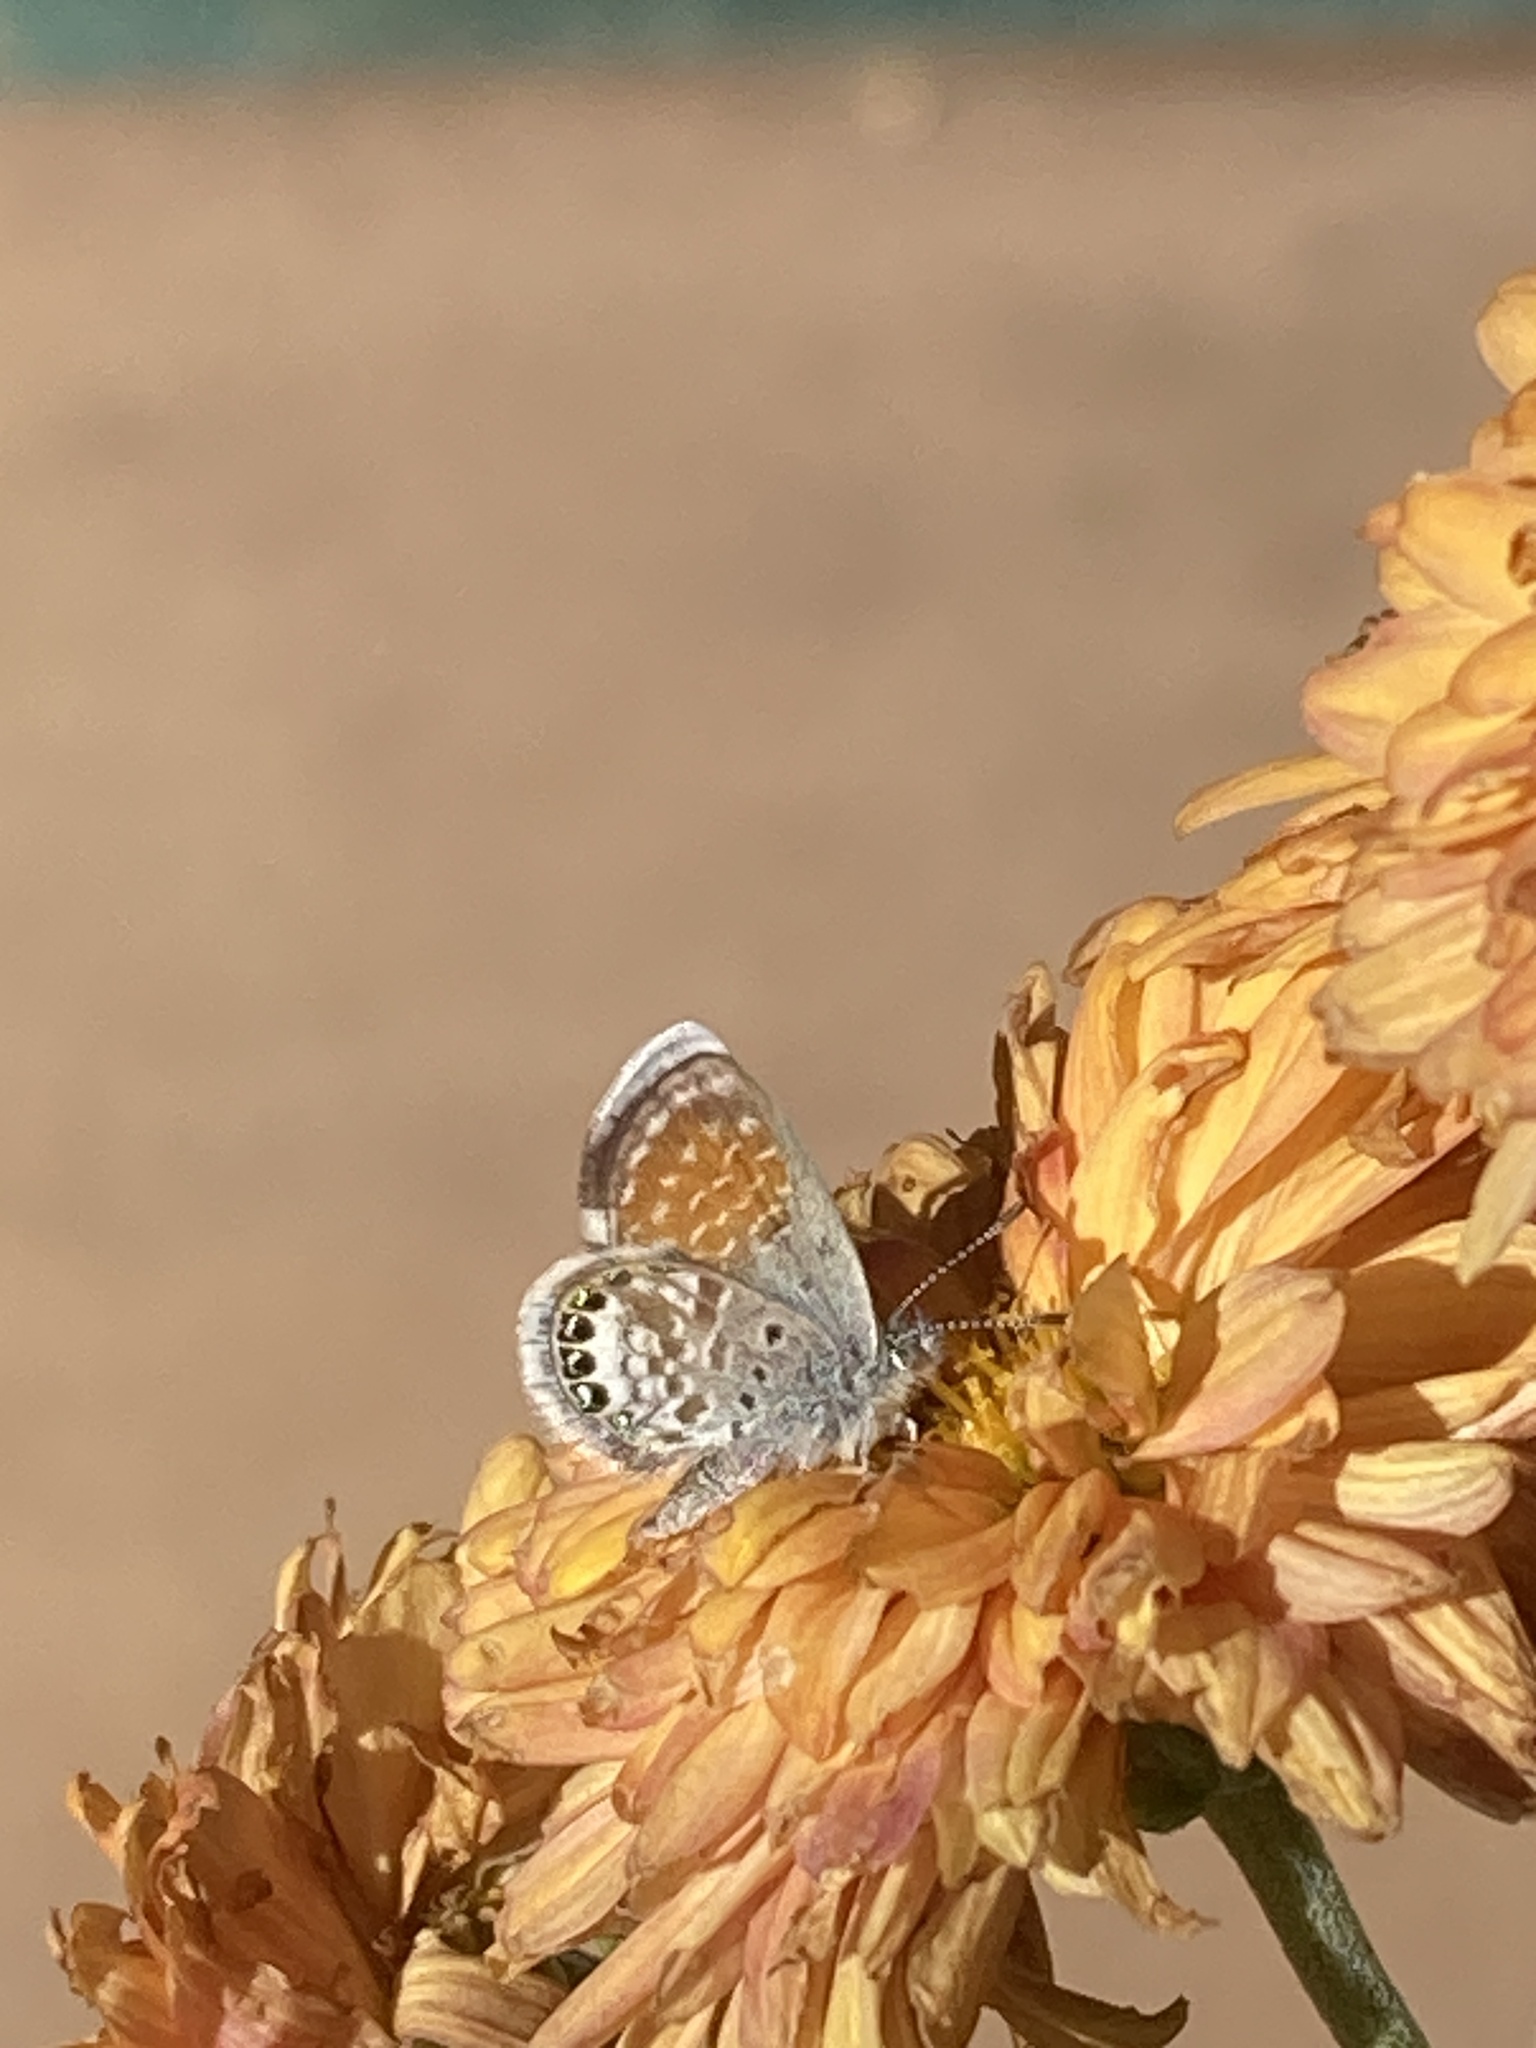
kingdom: Animalia
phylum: Arthropoda
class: Insecta
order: Lepidoptera
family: Lycaenidae
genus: Brephidium
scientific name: Brephidium exilis
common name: Pygmy blue
